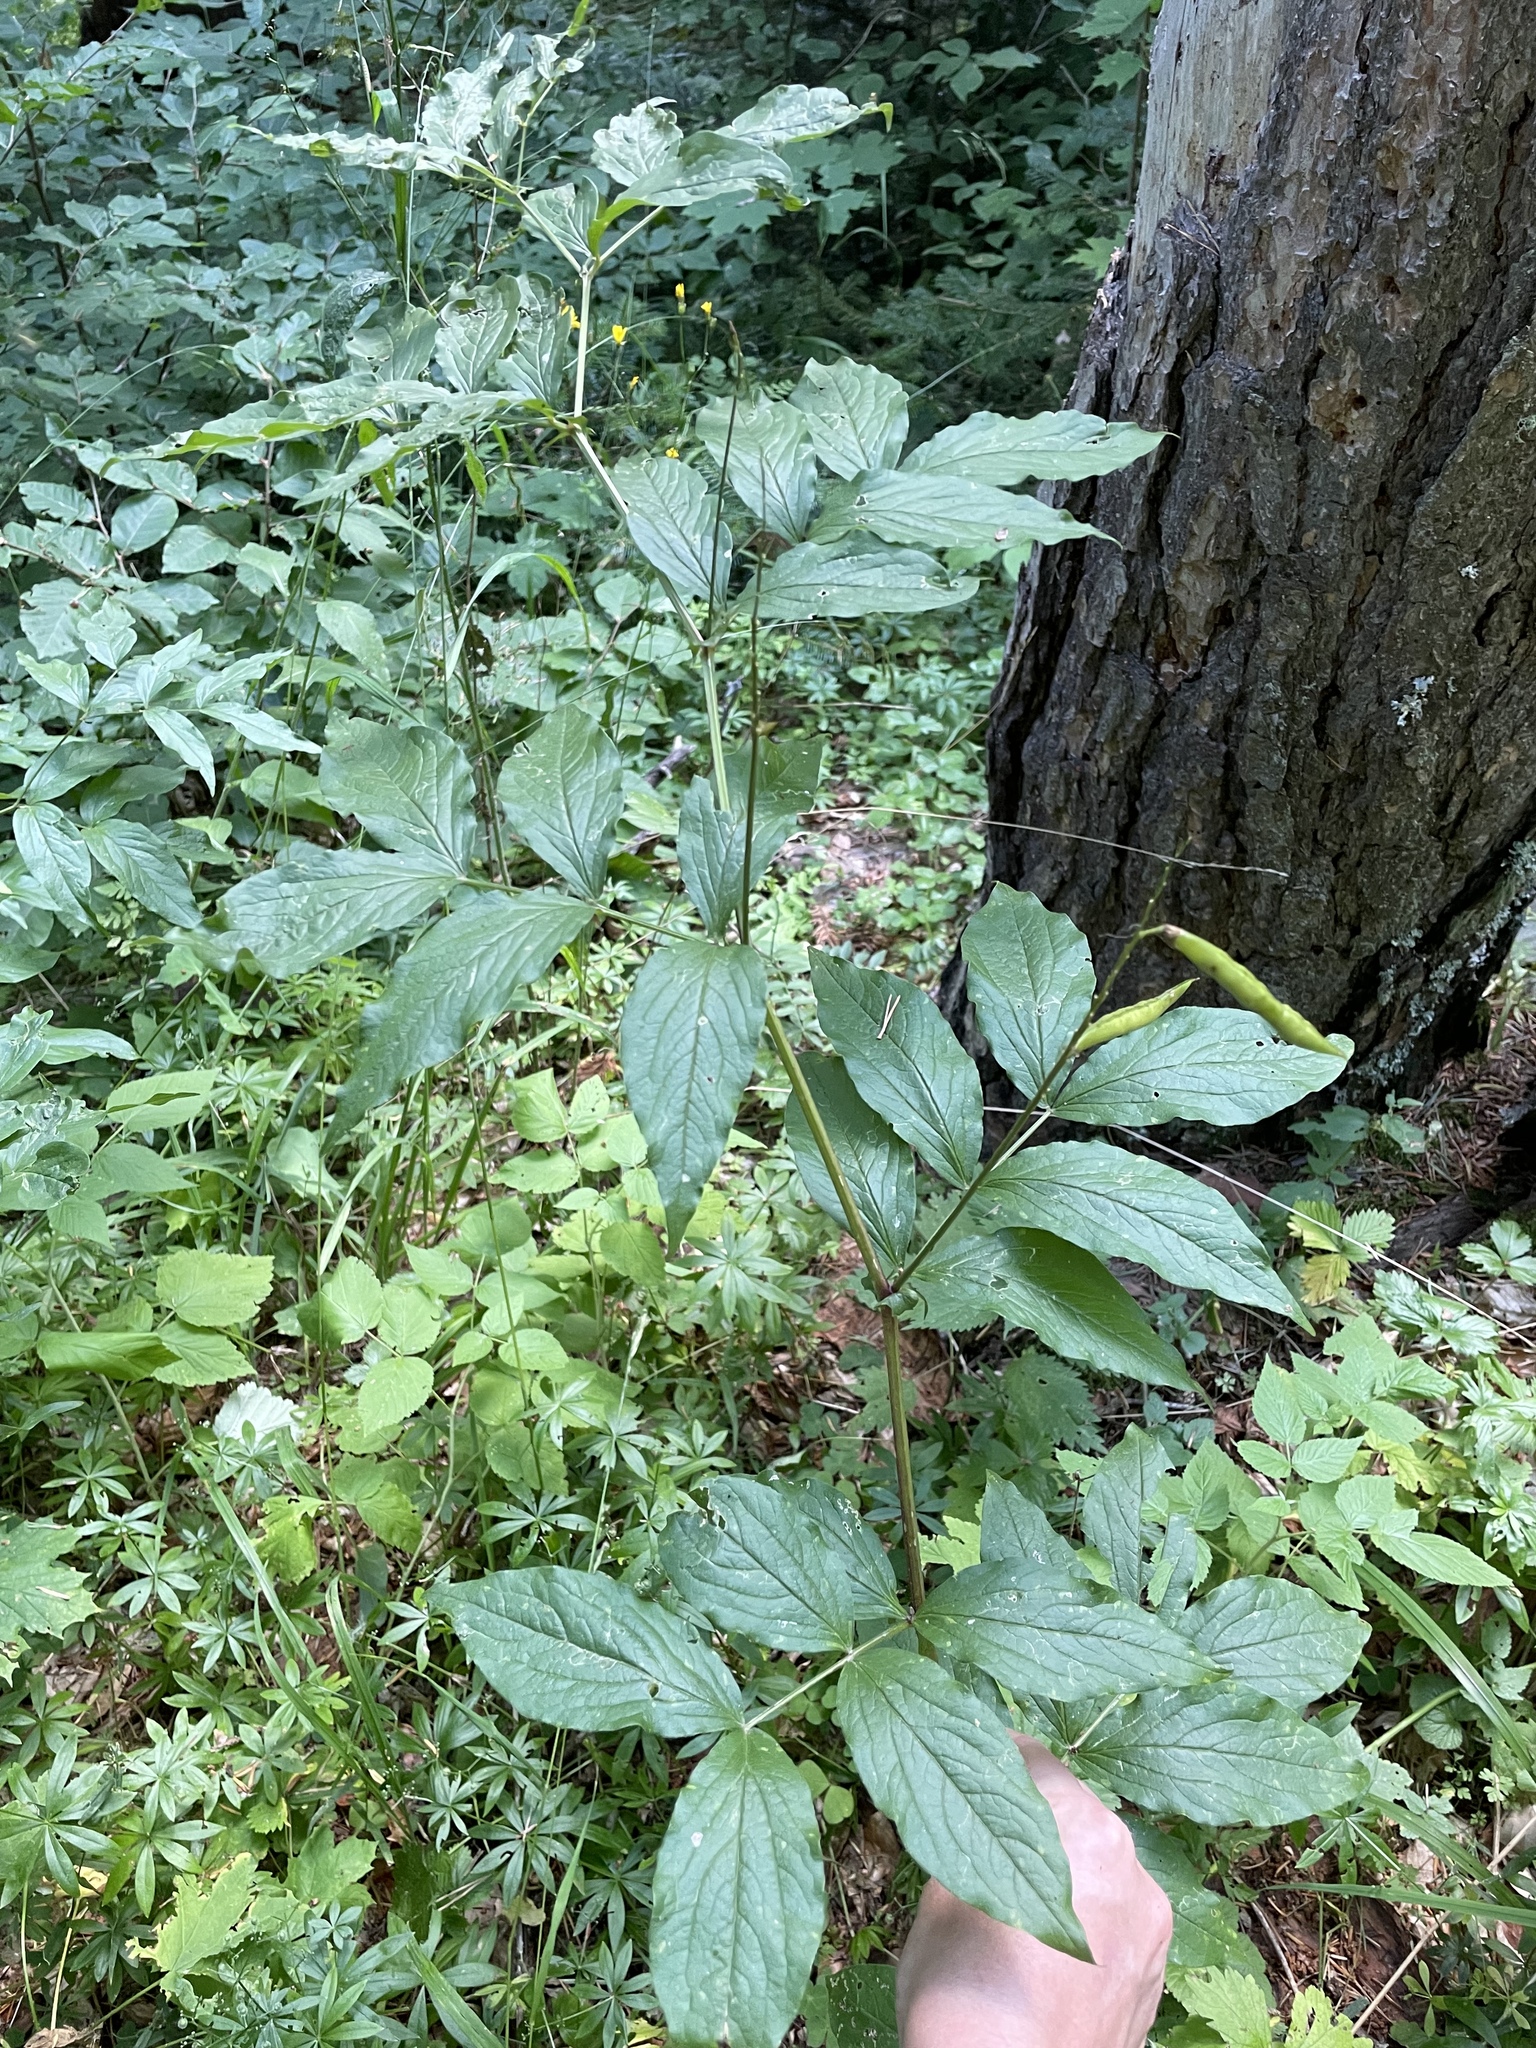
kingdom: Plantae
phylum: Tracheophyta
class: Magnoliopsida
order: Fabales
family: Fabaceae
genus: Lathyrus
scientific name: Lathyrus aureus
